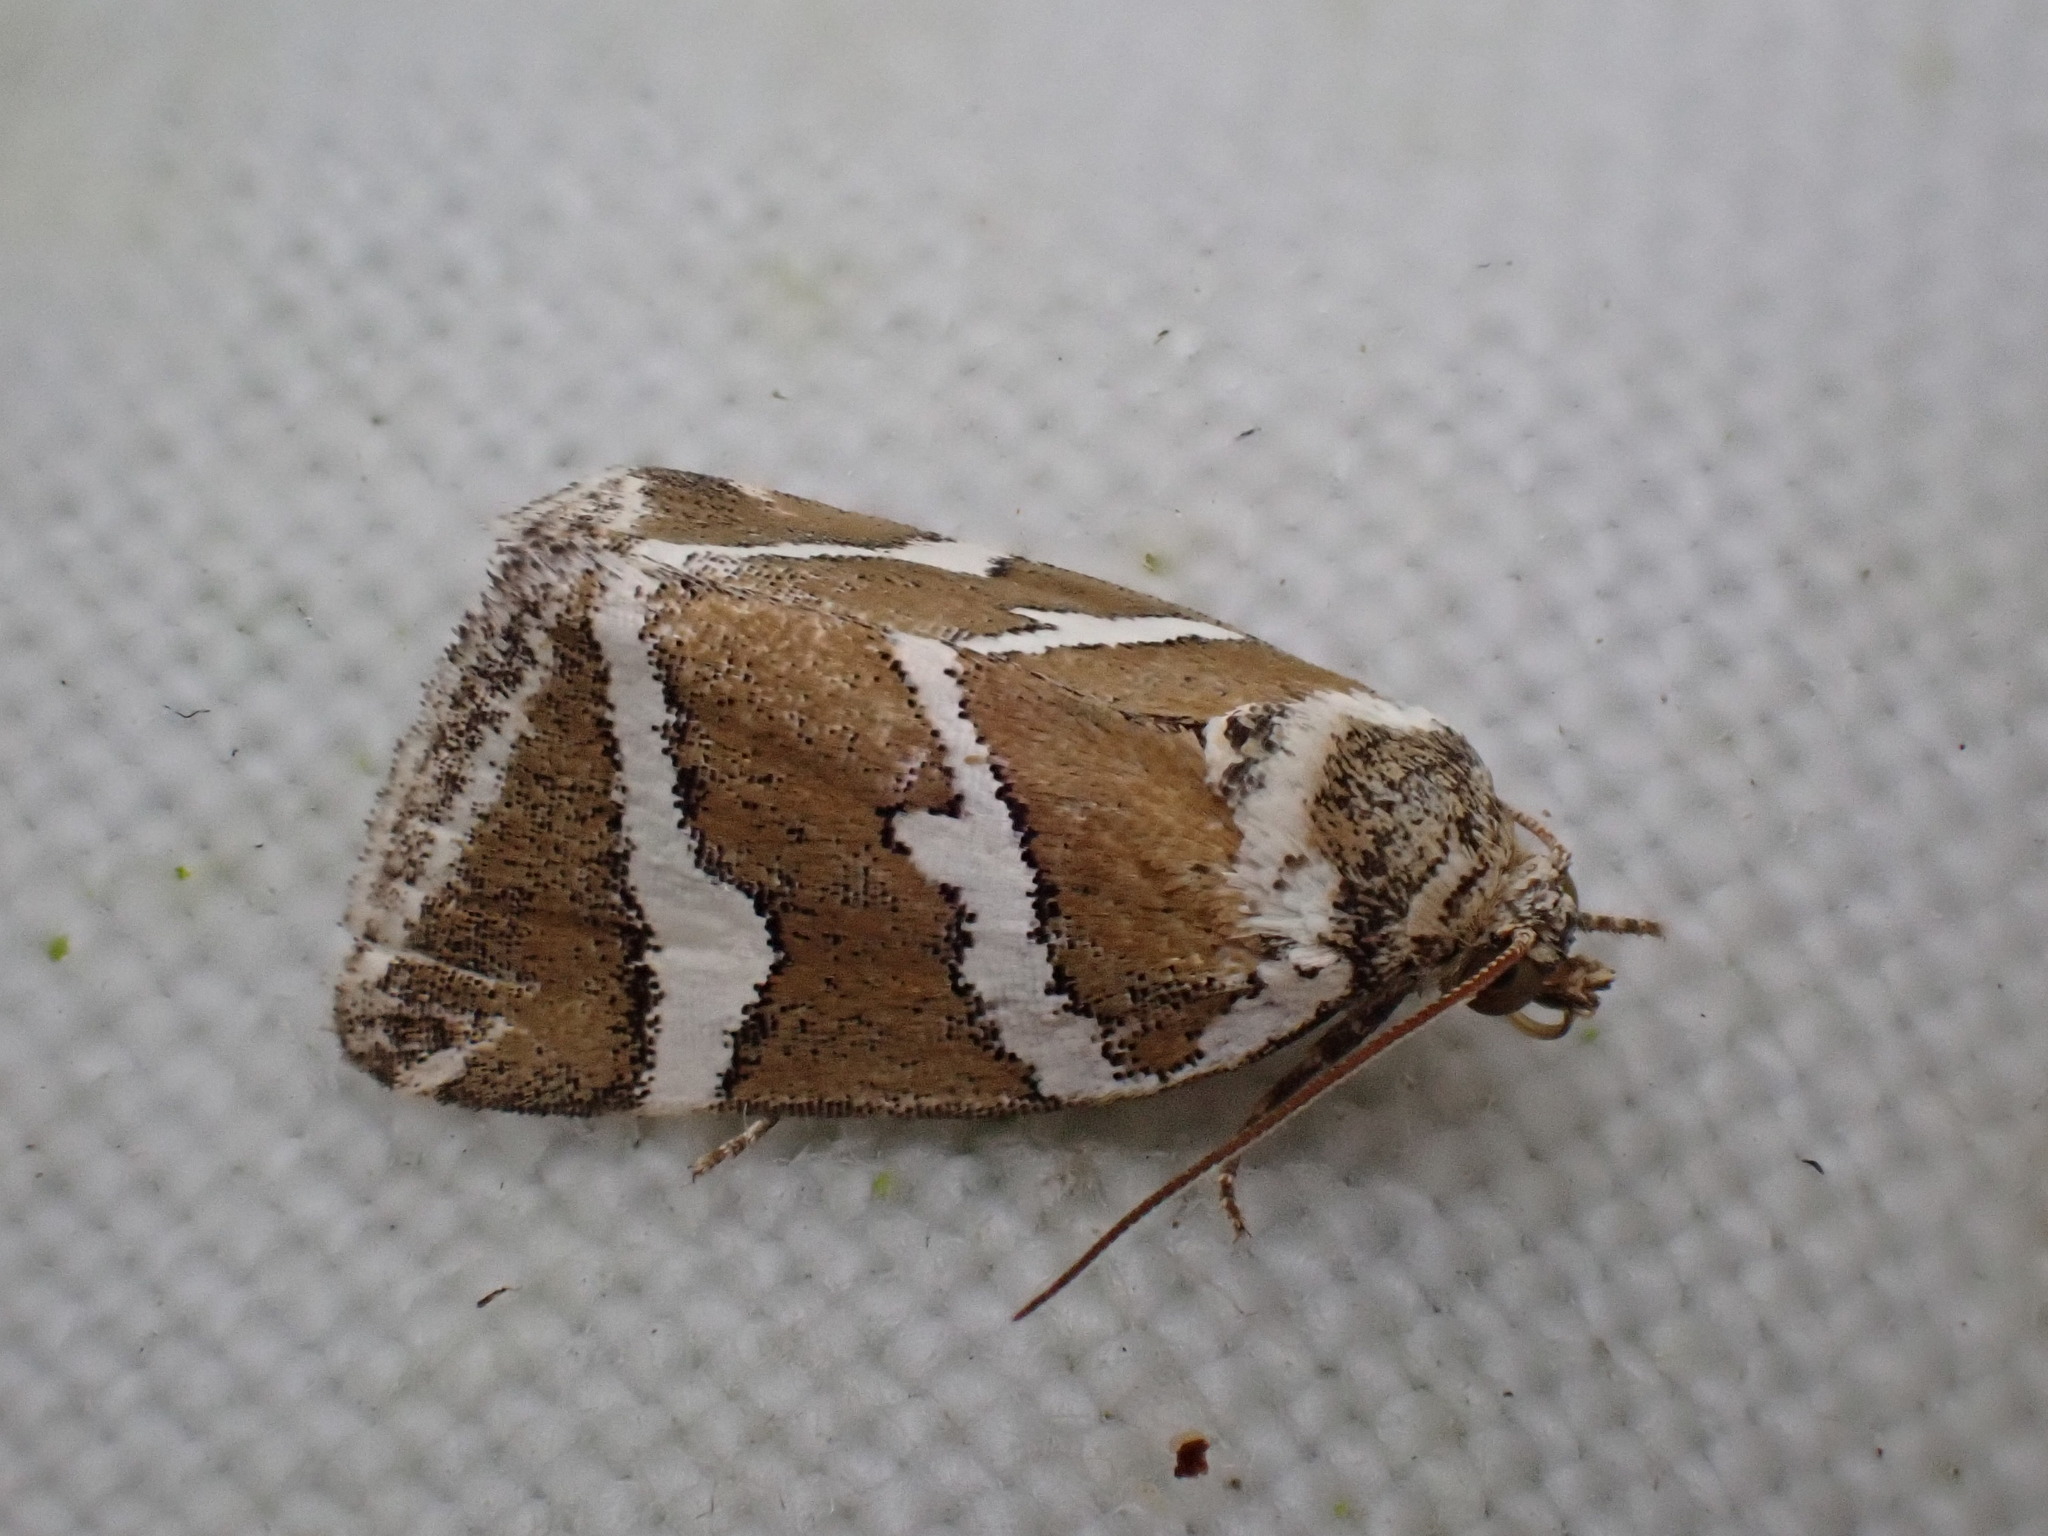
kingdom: Animalia
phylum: Arthropoda
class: Insecta
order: Lepidoptera
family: Noctuidae
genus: Deltote
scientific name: Deltote bankiana
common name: Silver barred
